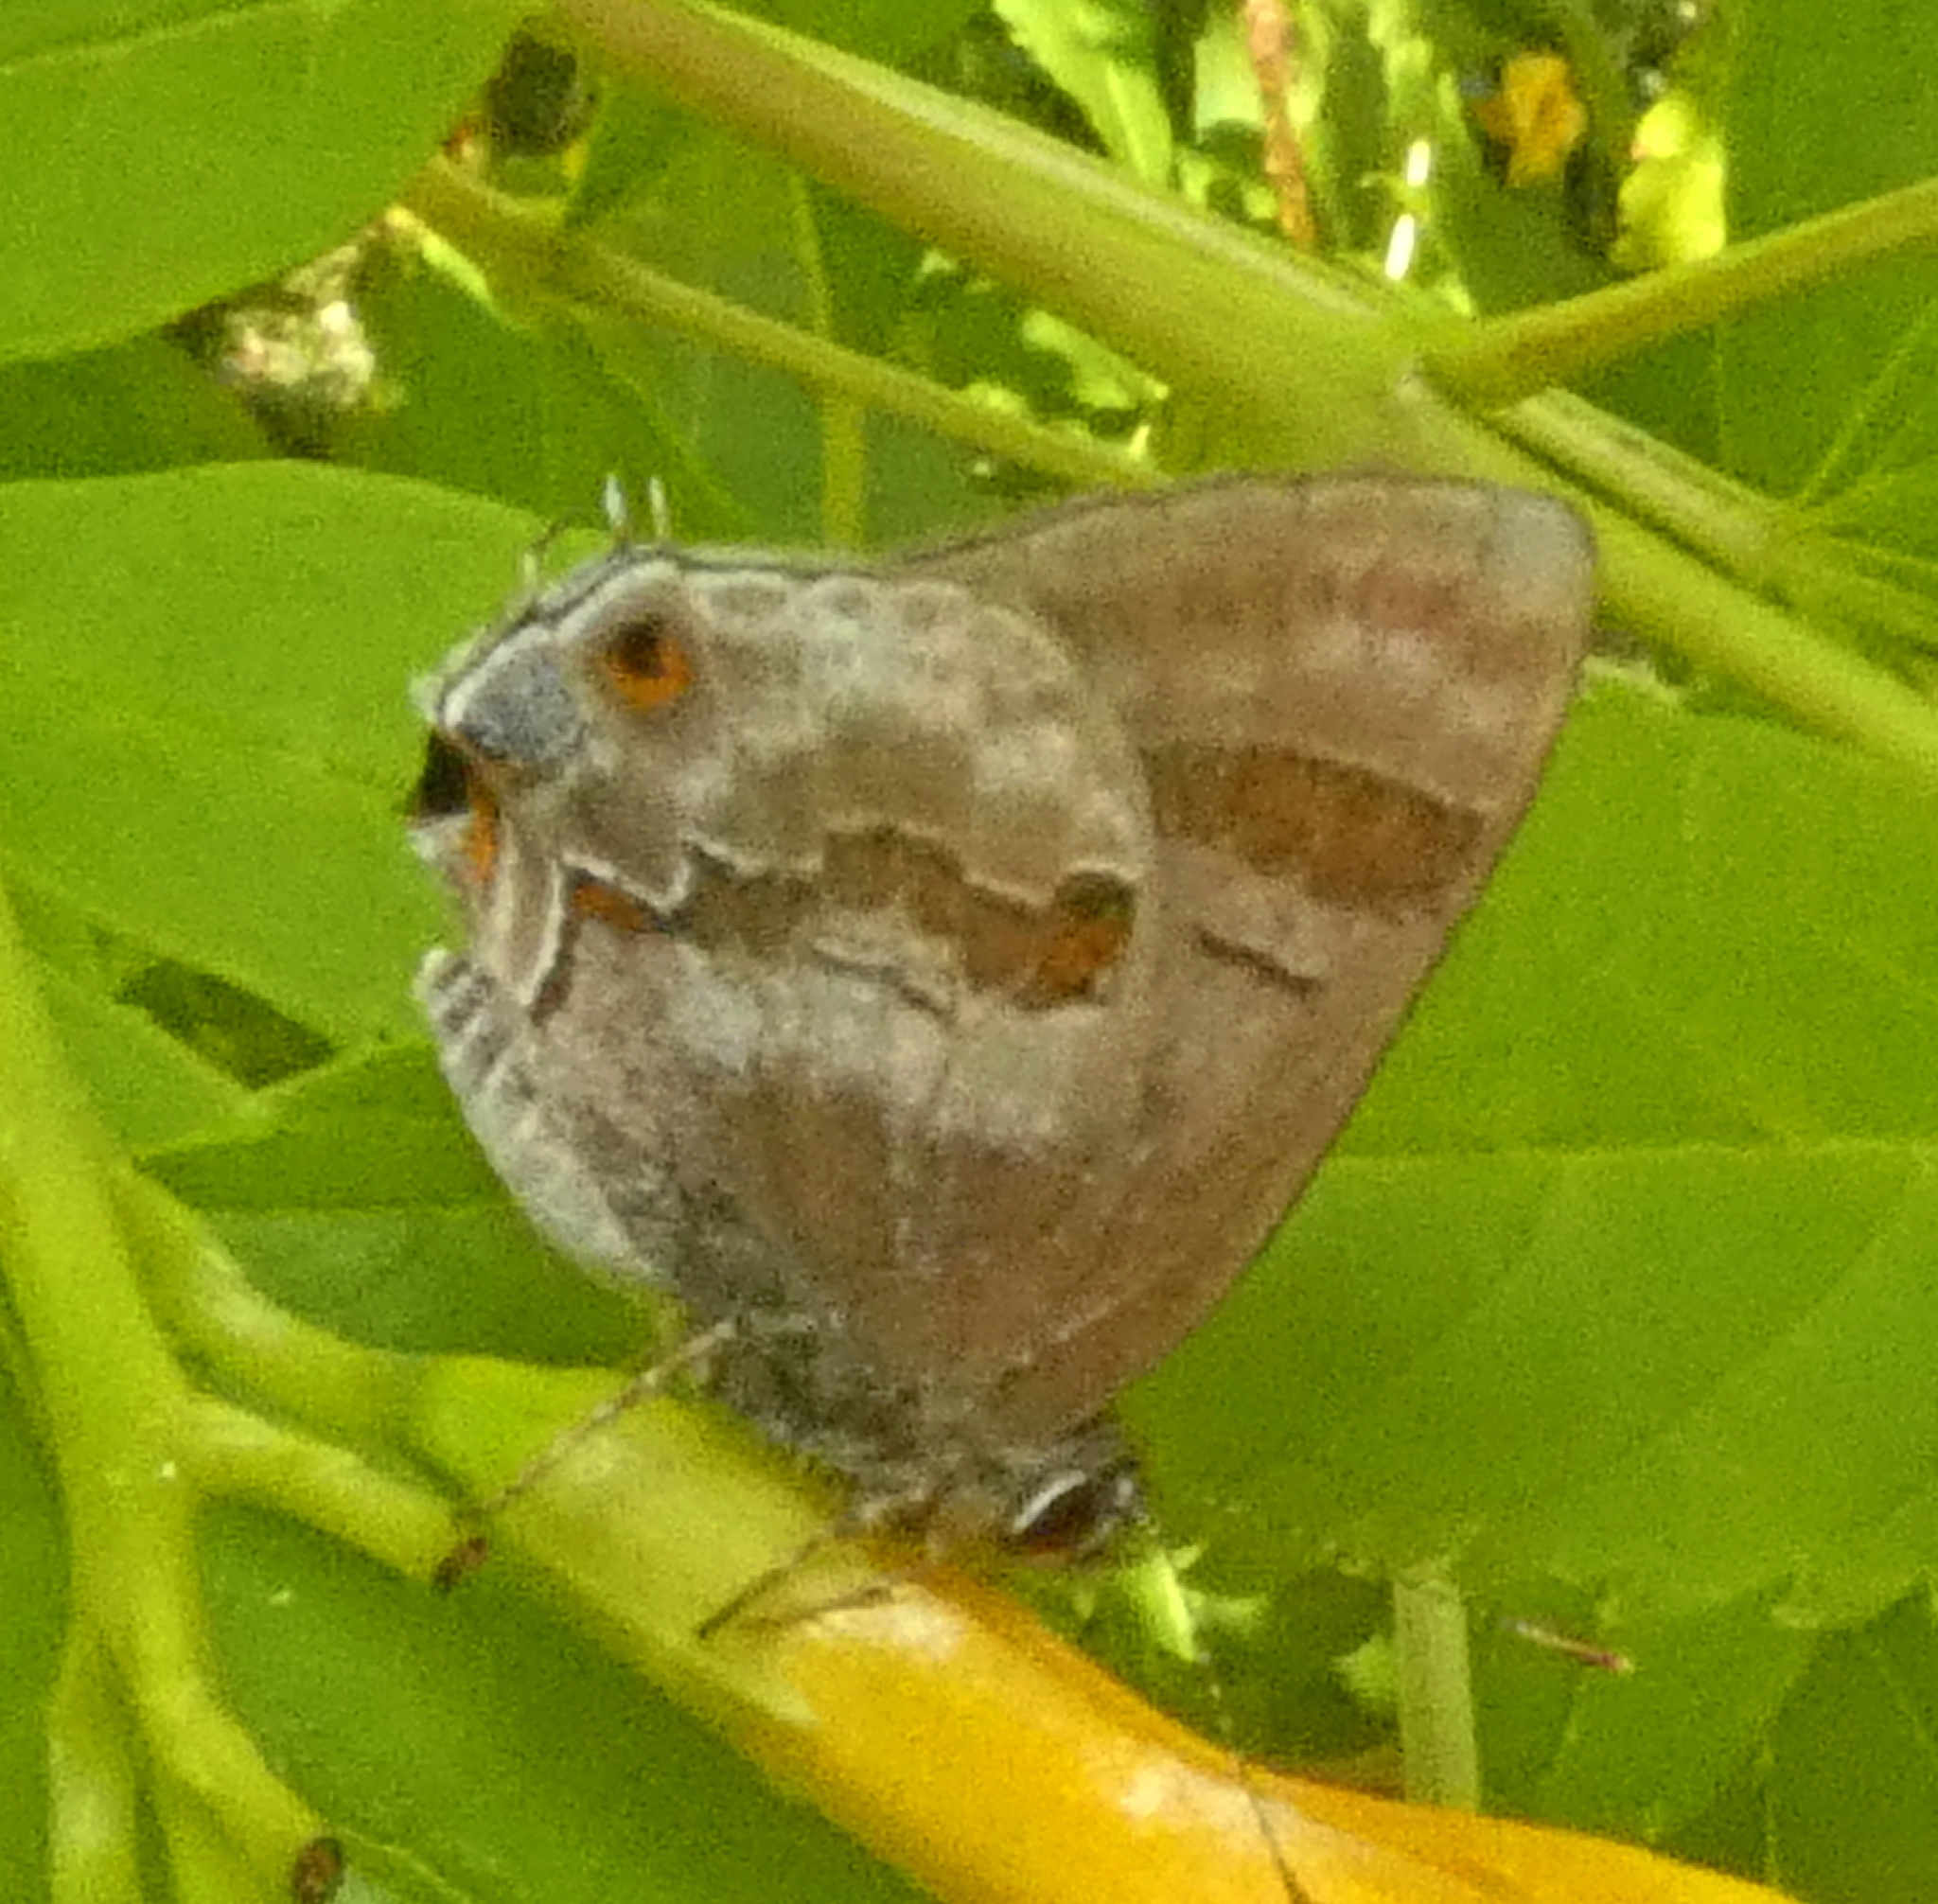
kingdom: Animalia
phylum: Arthropoda
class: Insecta
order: Lepidoptera
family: Lycaenidae
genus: Thecla
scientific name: Thecla ecbatana
